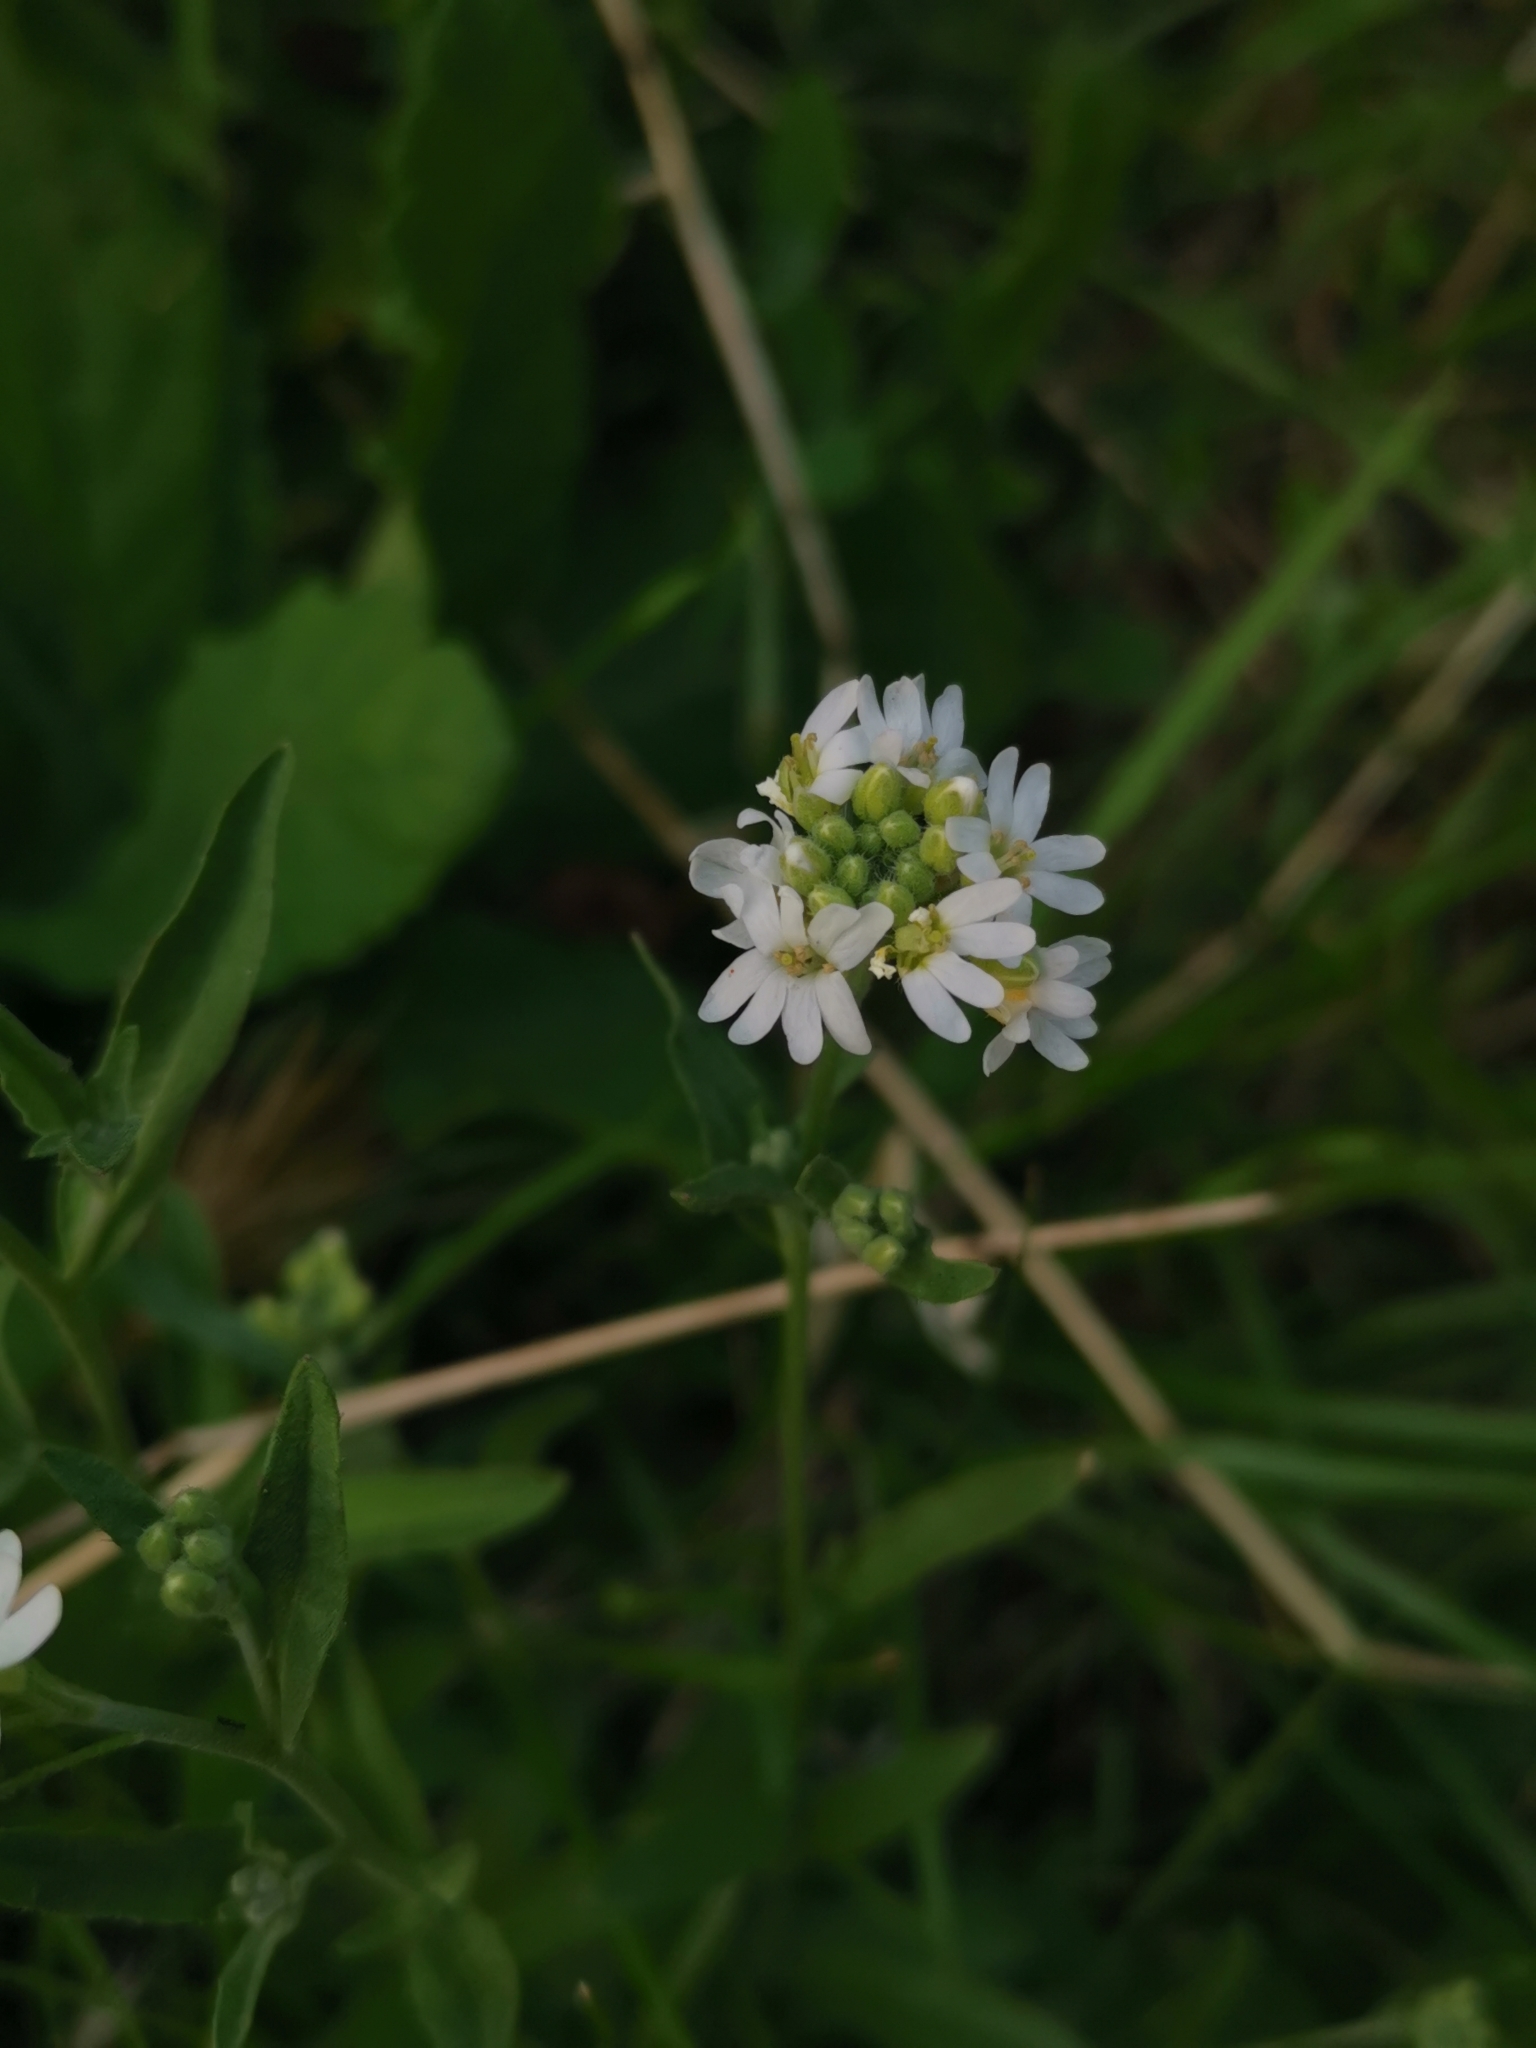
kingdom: Plantae
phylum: Tracheophyta
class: Magnoliopsida
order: Brassicales
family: Brassicaceae
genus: Berteroa
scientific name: Berteroa incana
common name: Hoary alison
